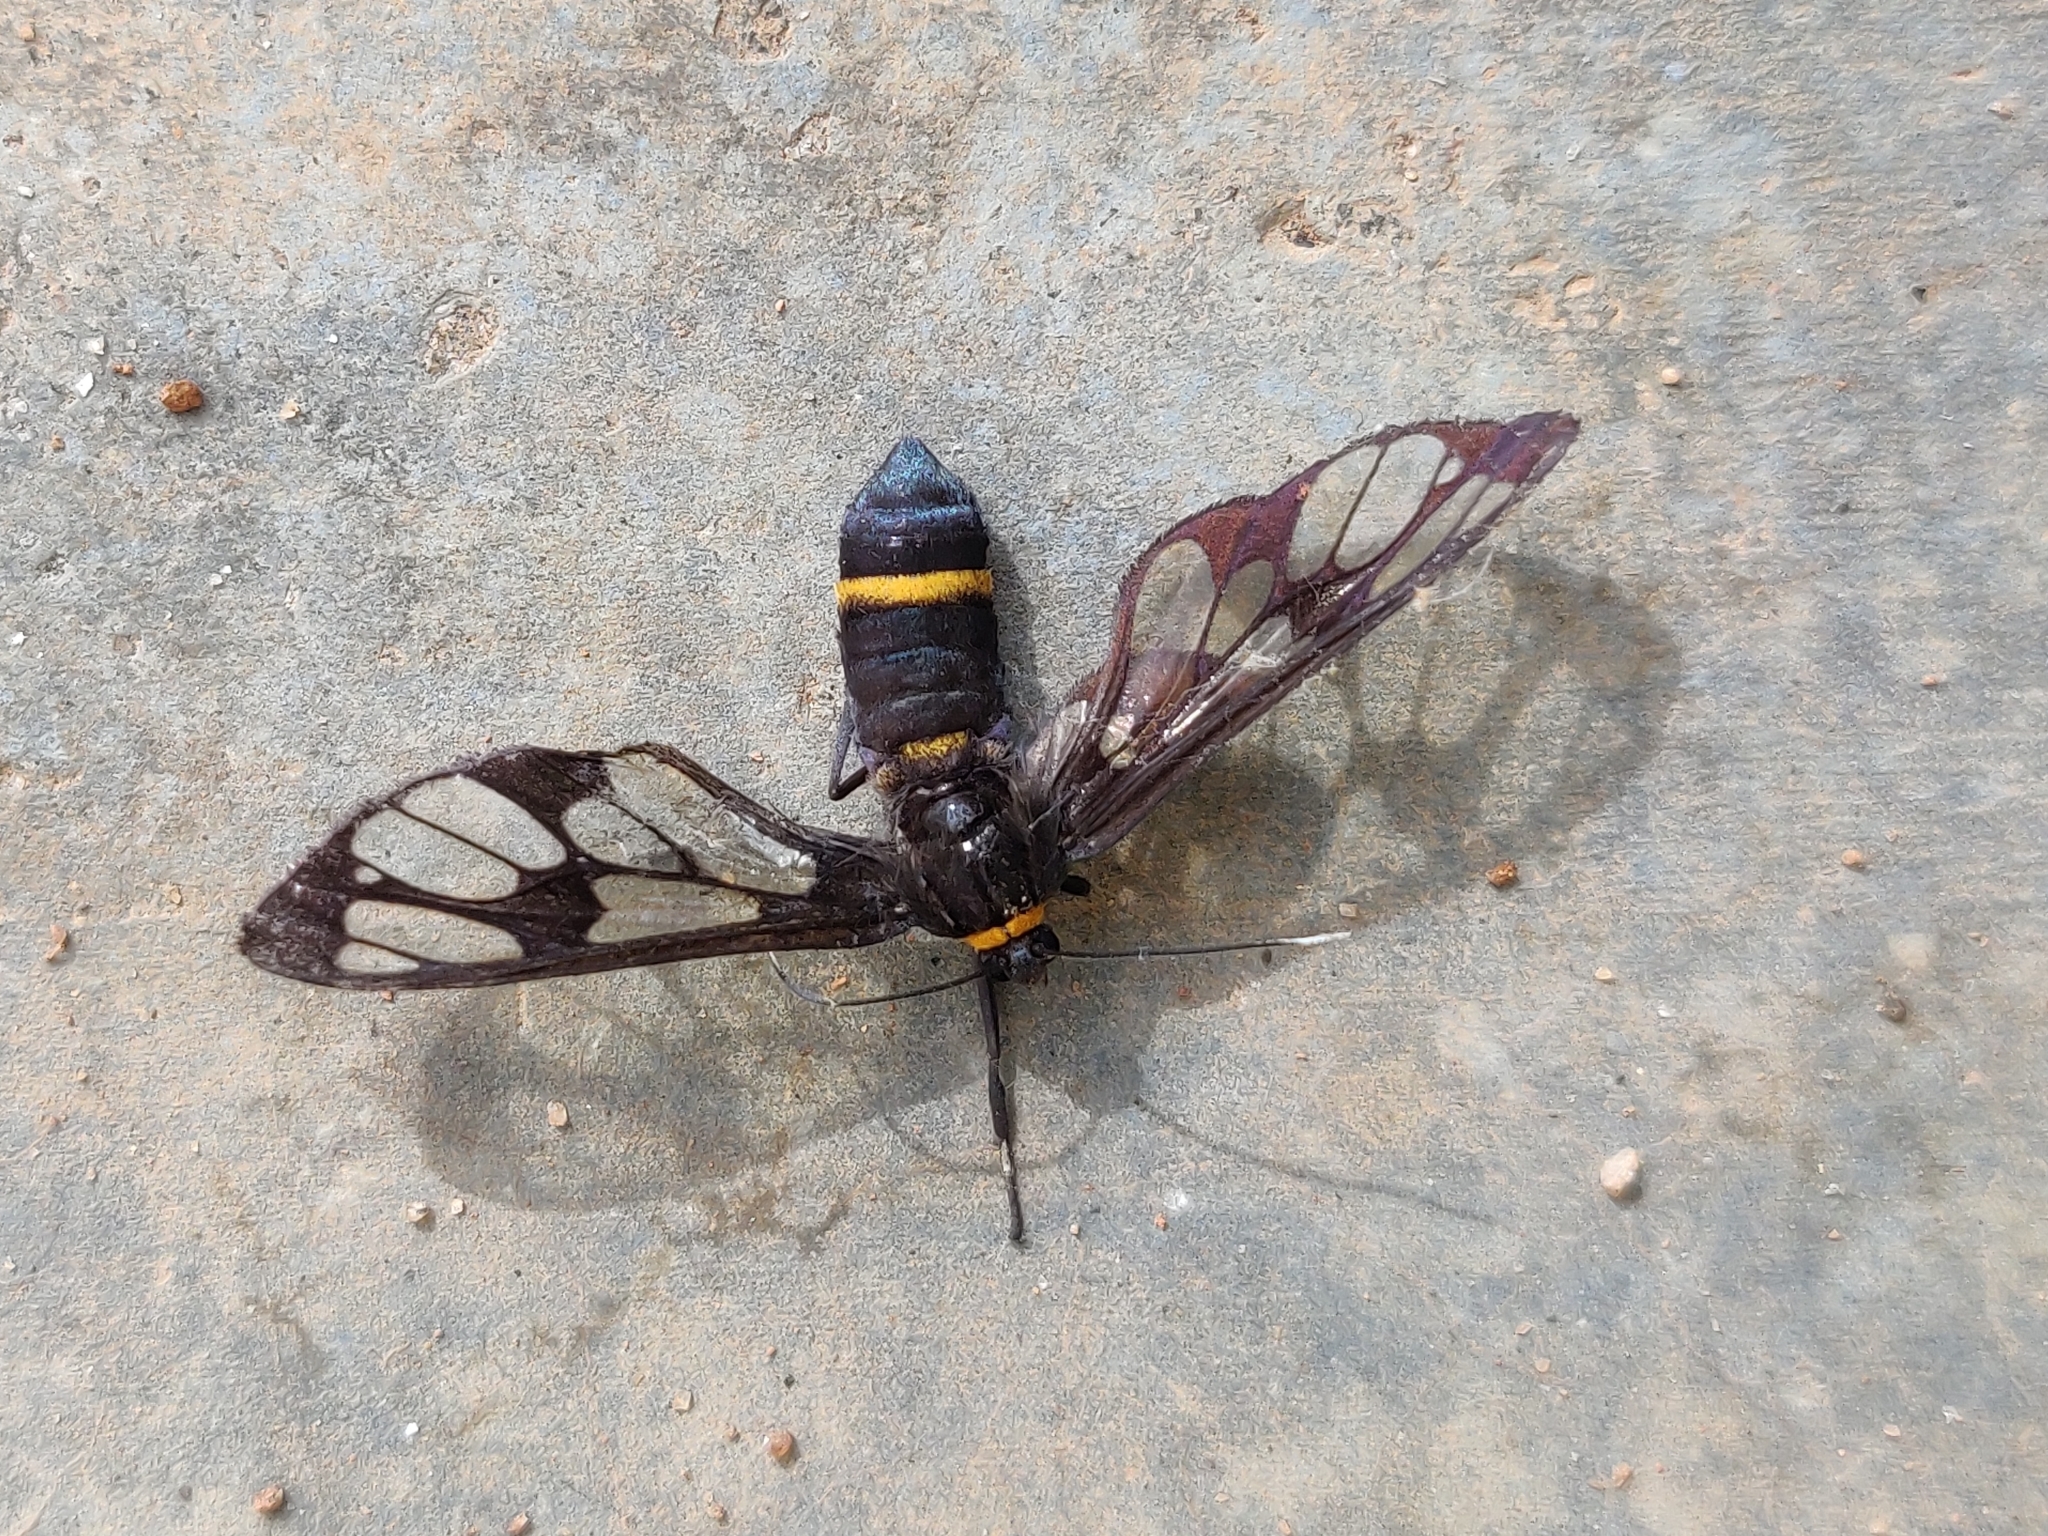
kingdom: Animalia
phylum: Arthropoda
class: Insecta
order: Lepidoptera
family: Erebidae
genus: Syntomoides
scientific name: Syntomoides imaon
